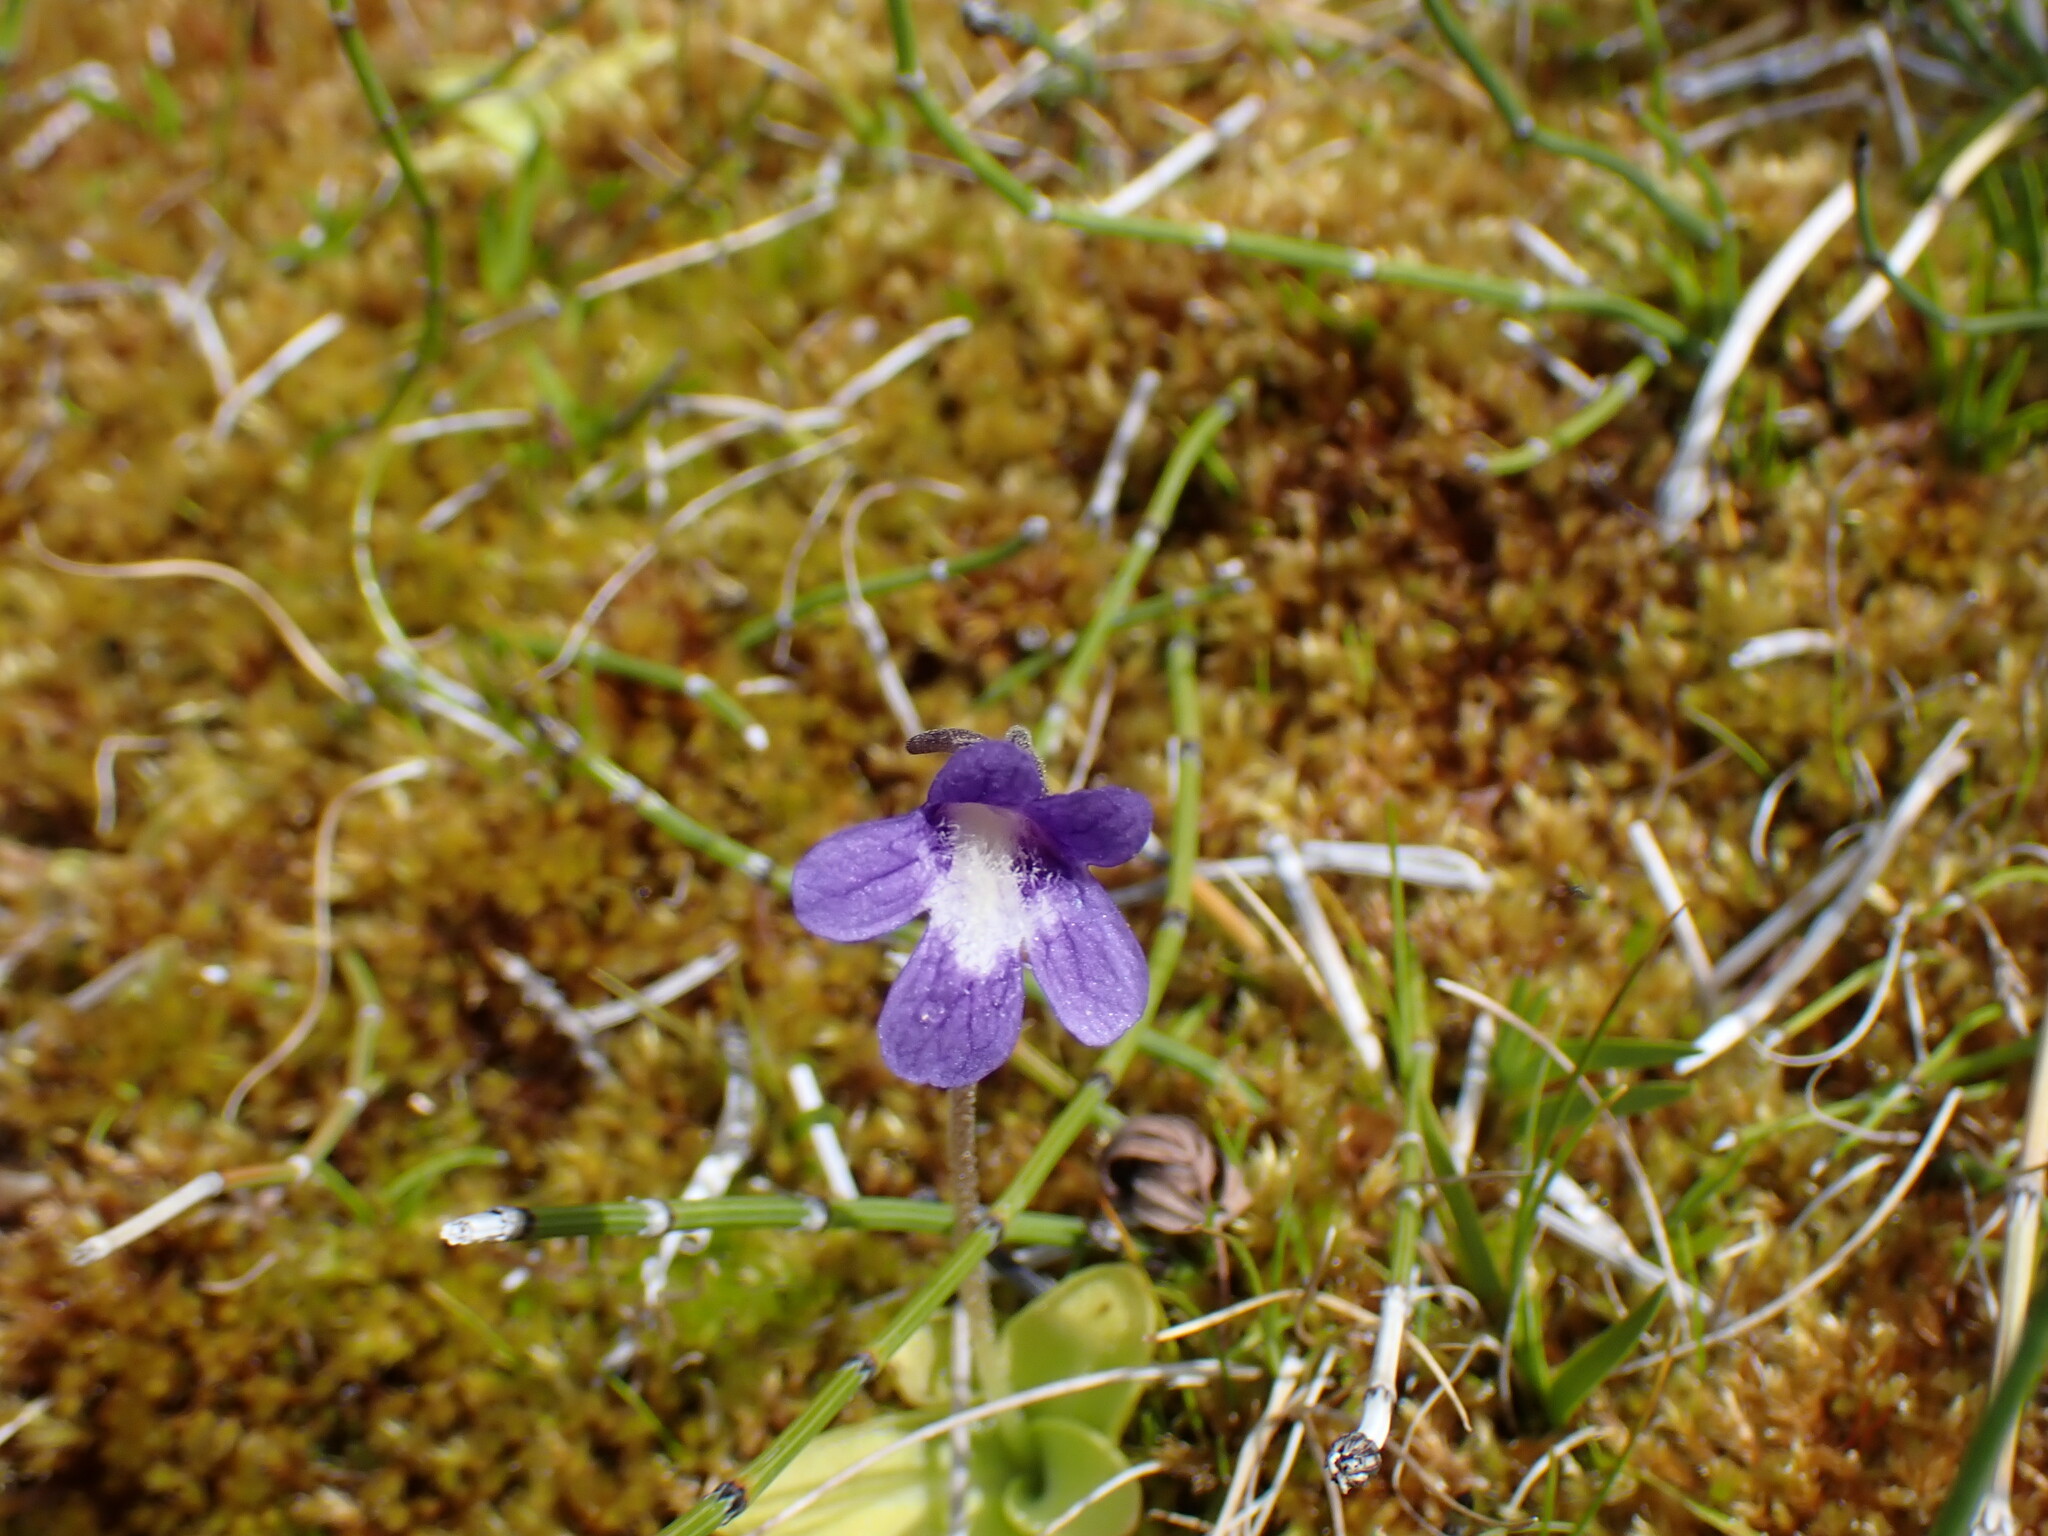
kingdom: Plantae
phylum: Tracheophyta
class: Magnoliopsida
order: Lamiales
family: Lentibulariaceae
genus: Pinguicula
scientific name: Pinguicula vulgaris
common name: Common butterwort
